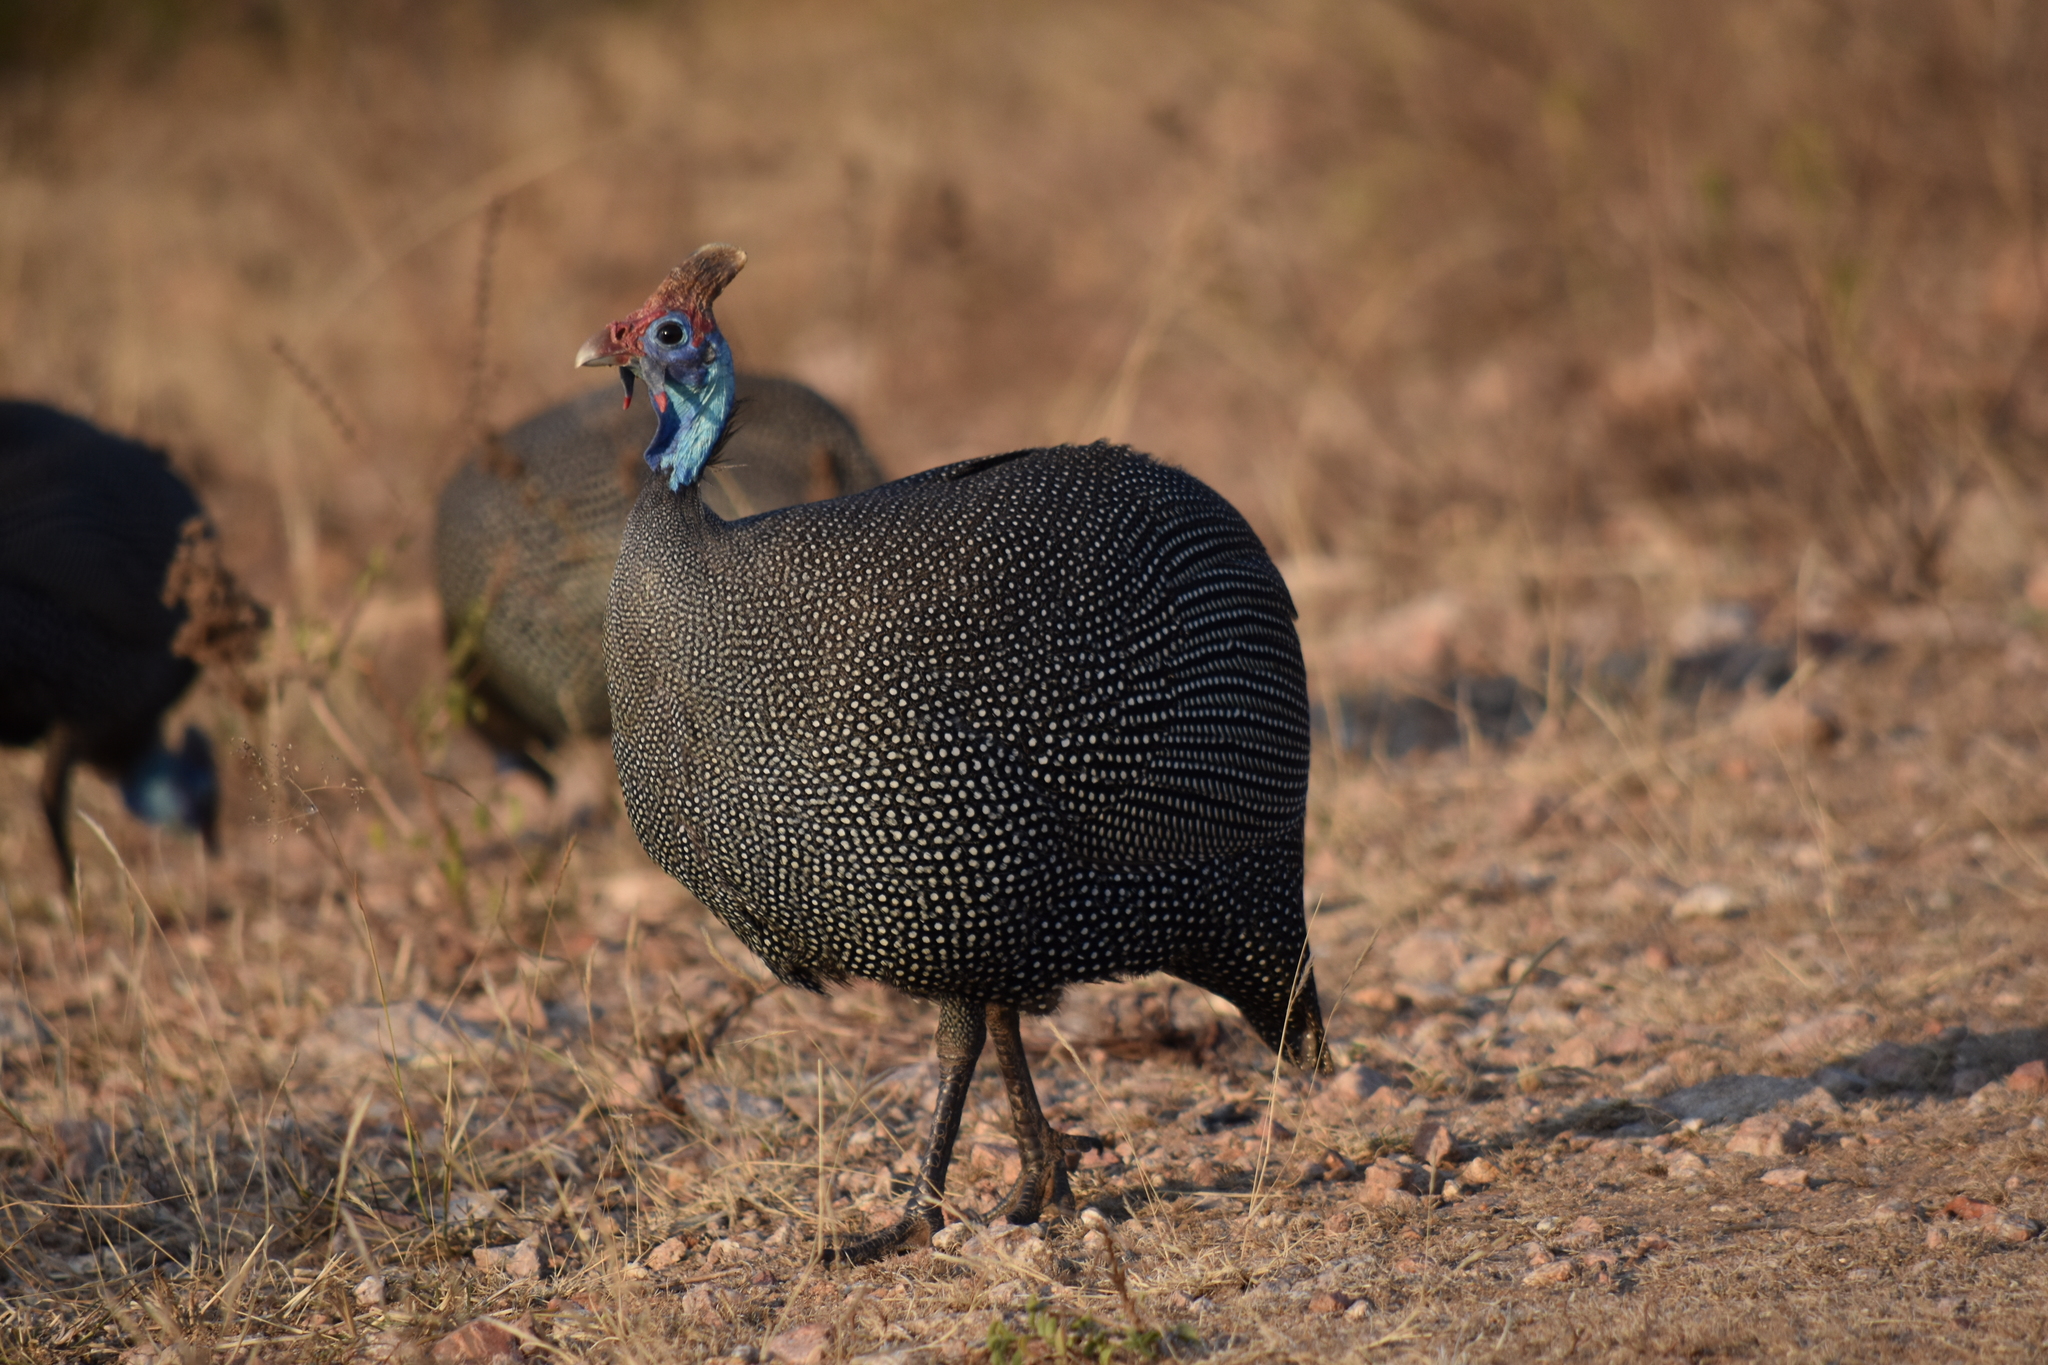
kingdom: Animalia
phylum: Chordata
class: Aves
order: Galliformes
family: Numididae
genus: Numida
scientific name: Numida meleagris
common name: Helmeted guineafowl
